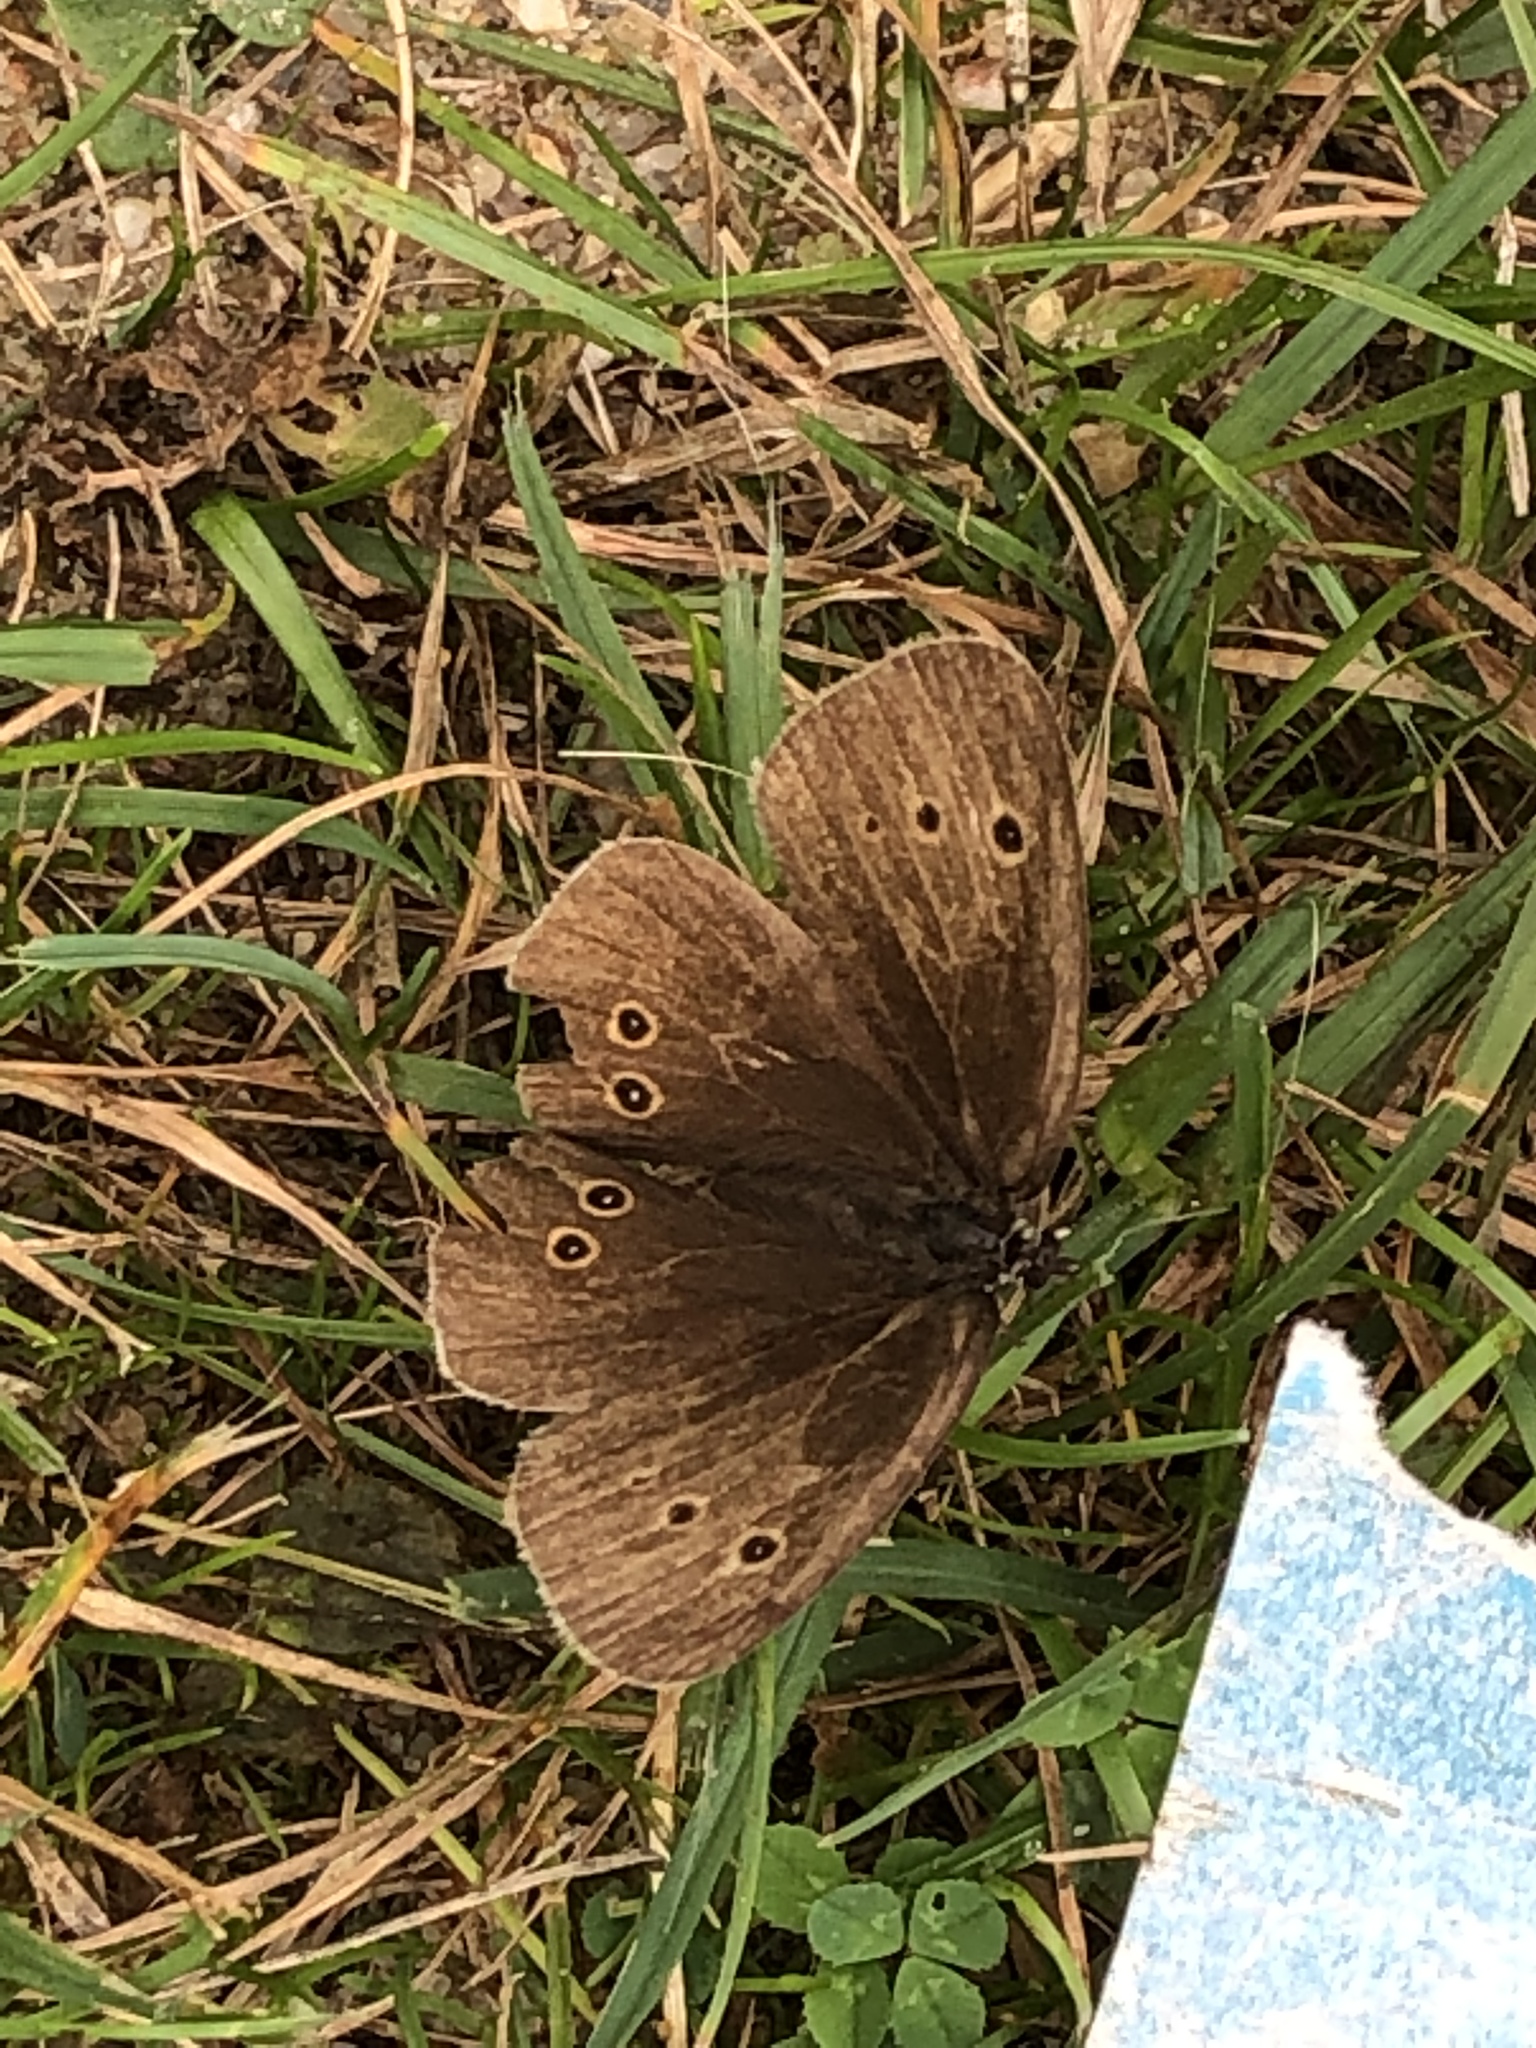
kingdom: Animalia
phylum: Arthropoda
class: Insecta
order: Lepidoptera
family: Nymphalidae
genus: Aphantopus
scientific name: Aphantopus hyperantus
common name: Ringlet
